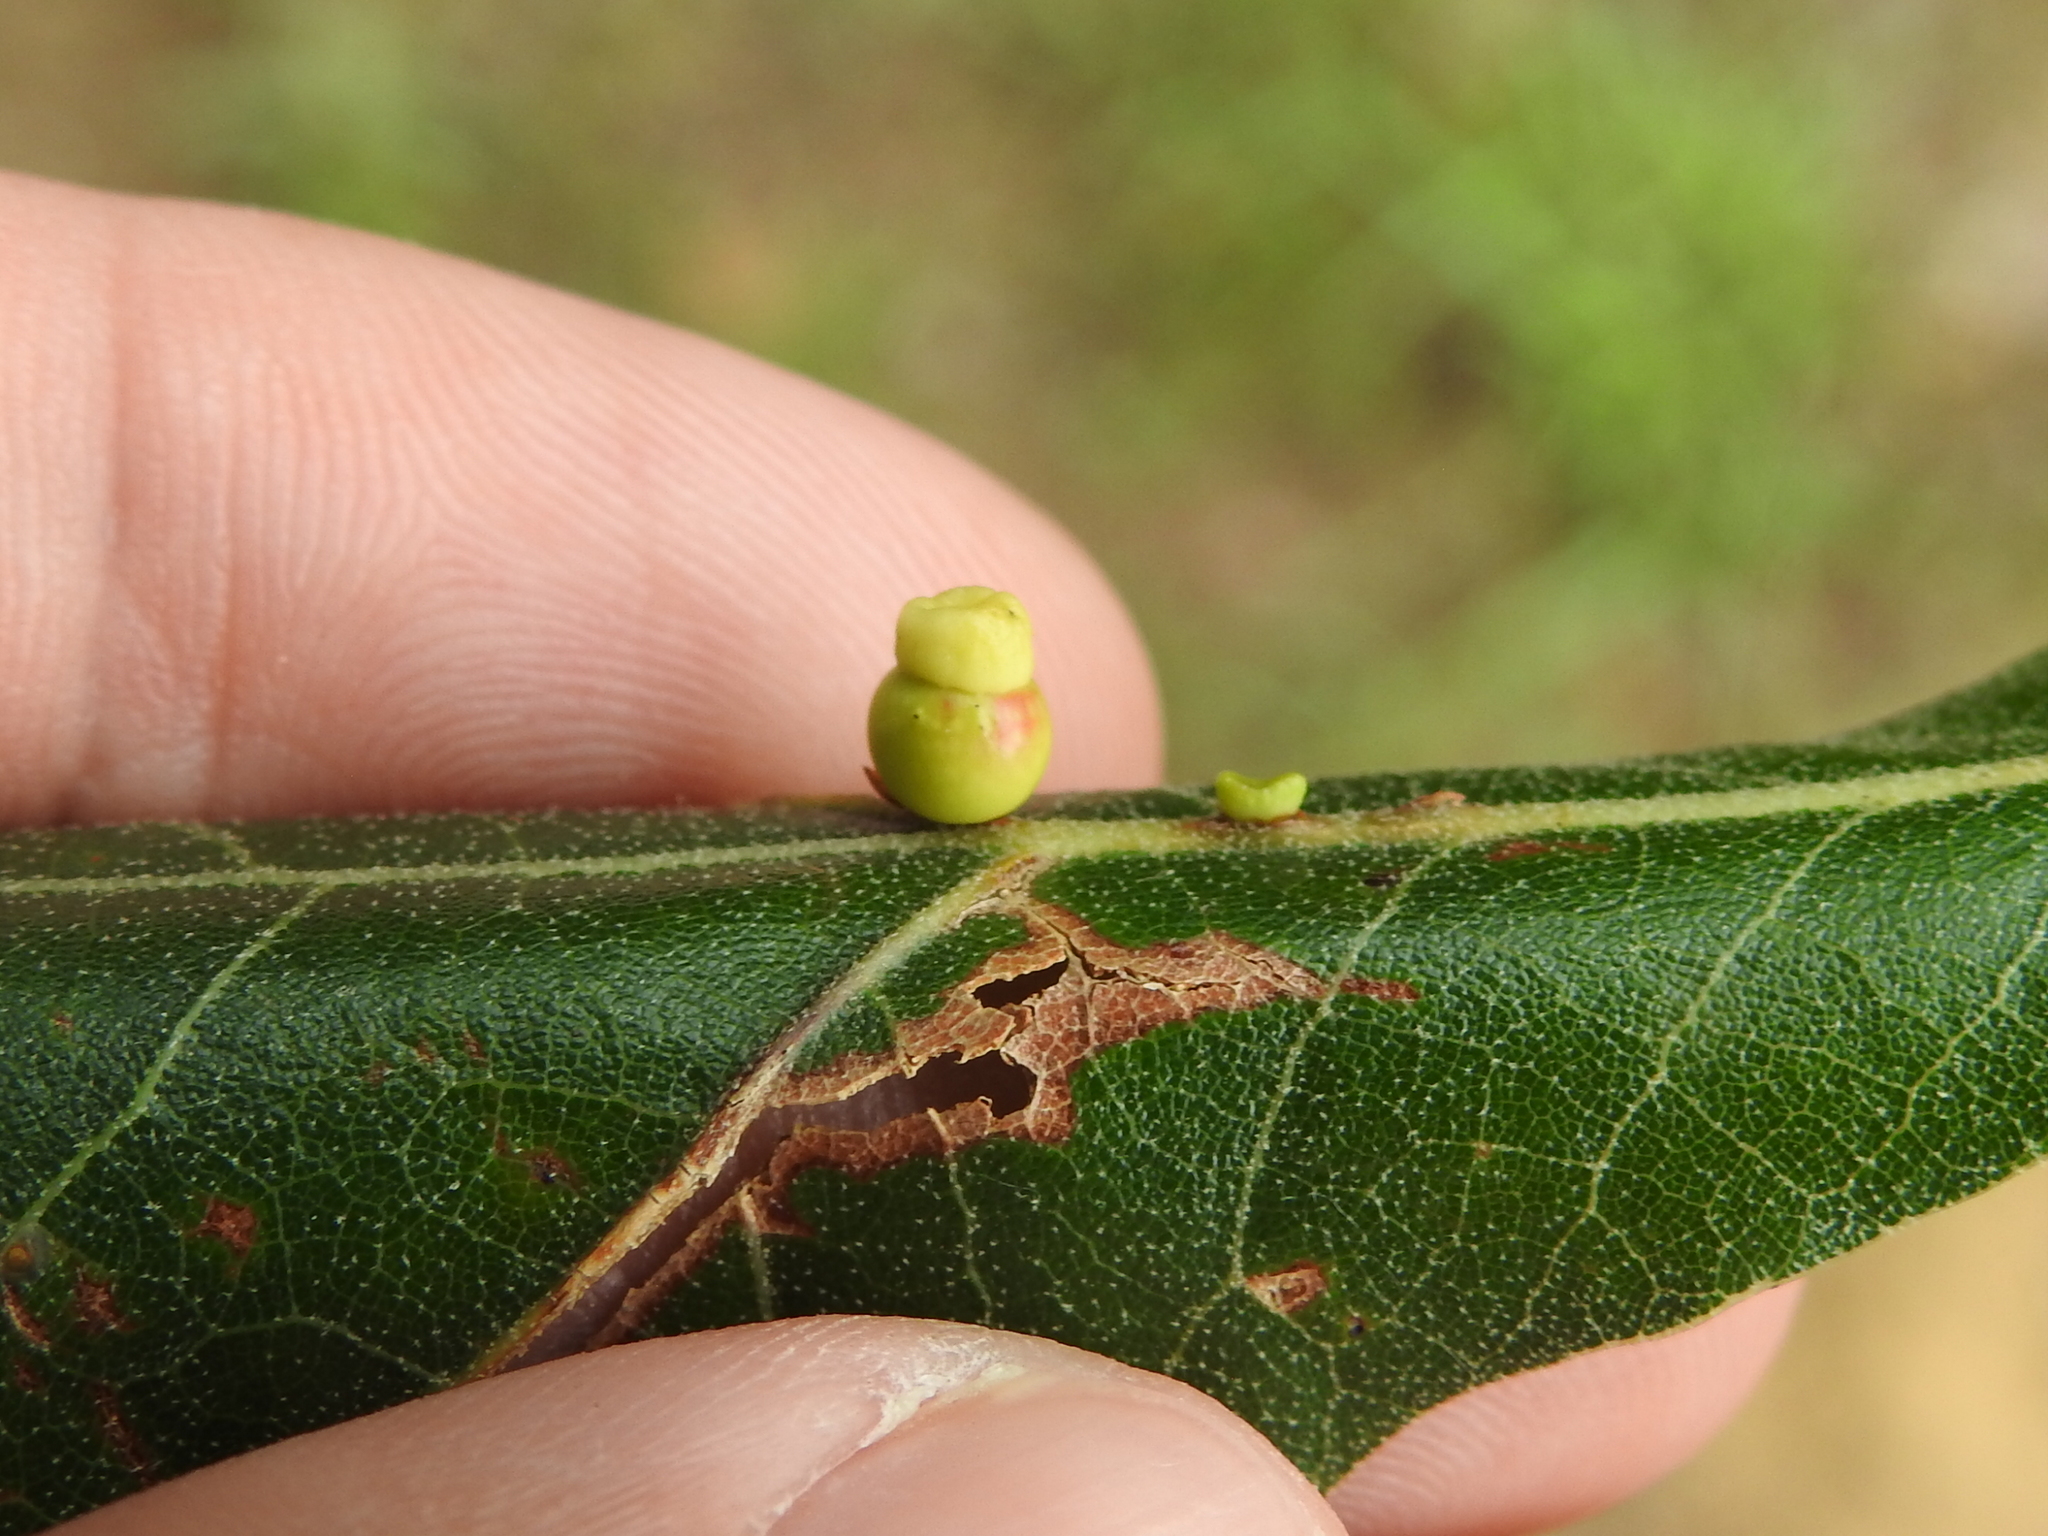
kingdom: Animalia
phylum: Arthropoda
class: Insecta
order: Hymenoptera
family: Cynipidae
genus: Kokkocynips
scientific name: Kokkocynips rileyi
